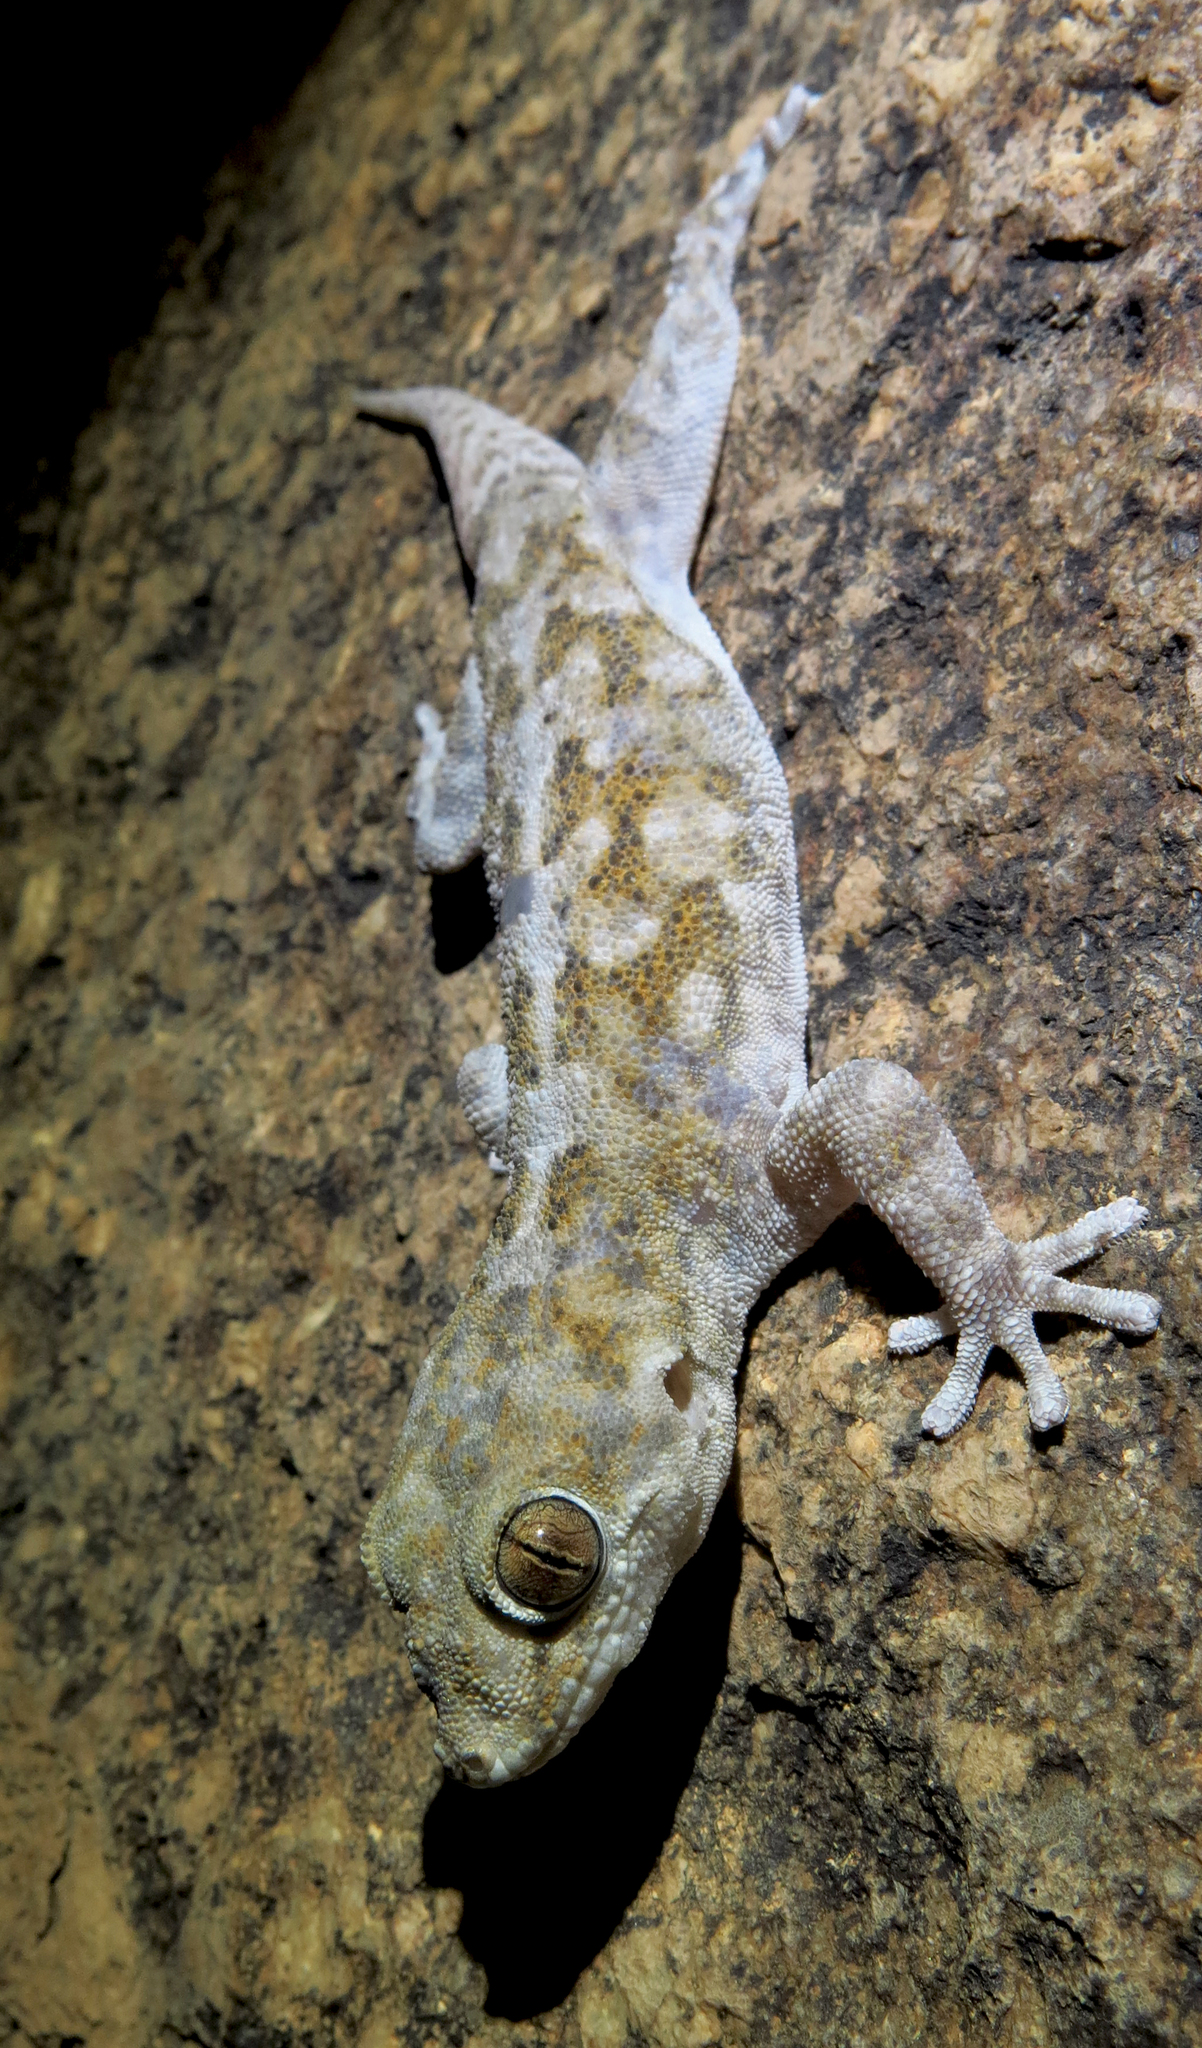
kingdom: Animalia
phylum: Chordata
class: Squamata
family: Gekkonidae
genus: Pachydactylus
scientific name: Pachydactylus haackei
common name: Haacke's gecko
